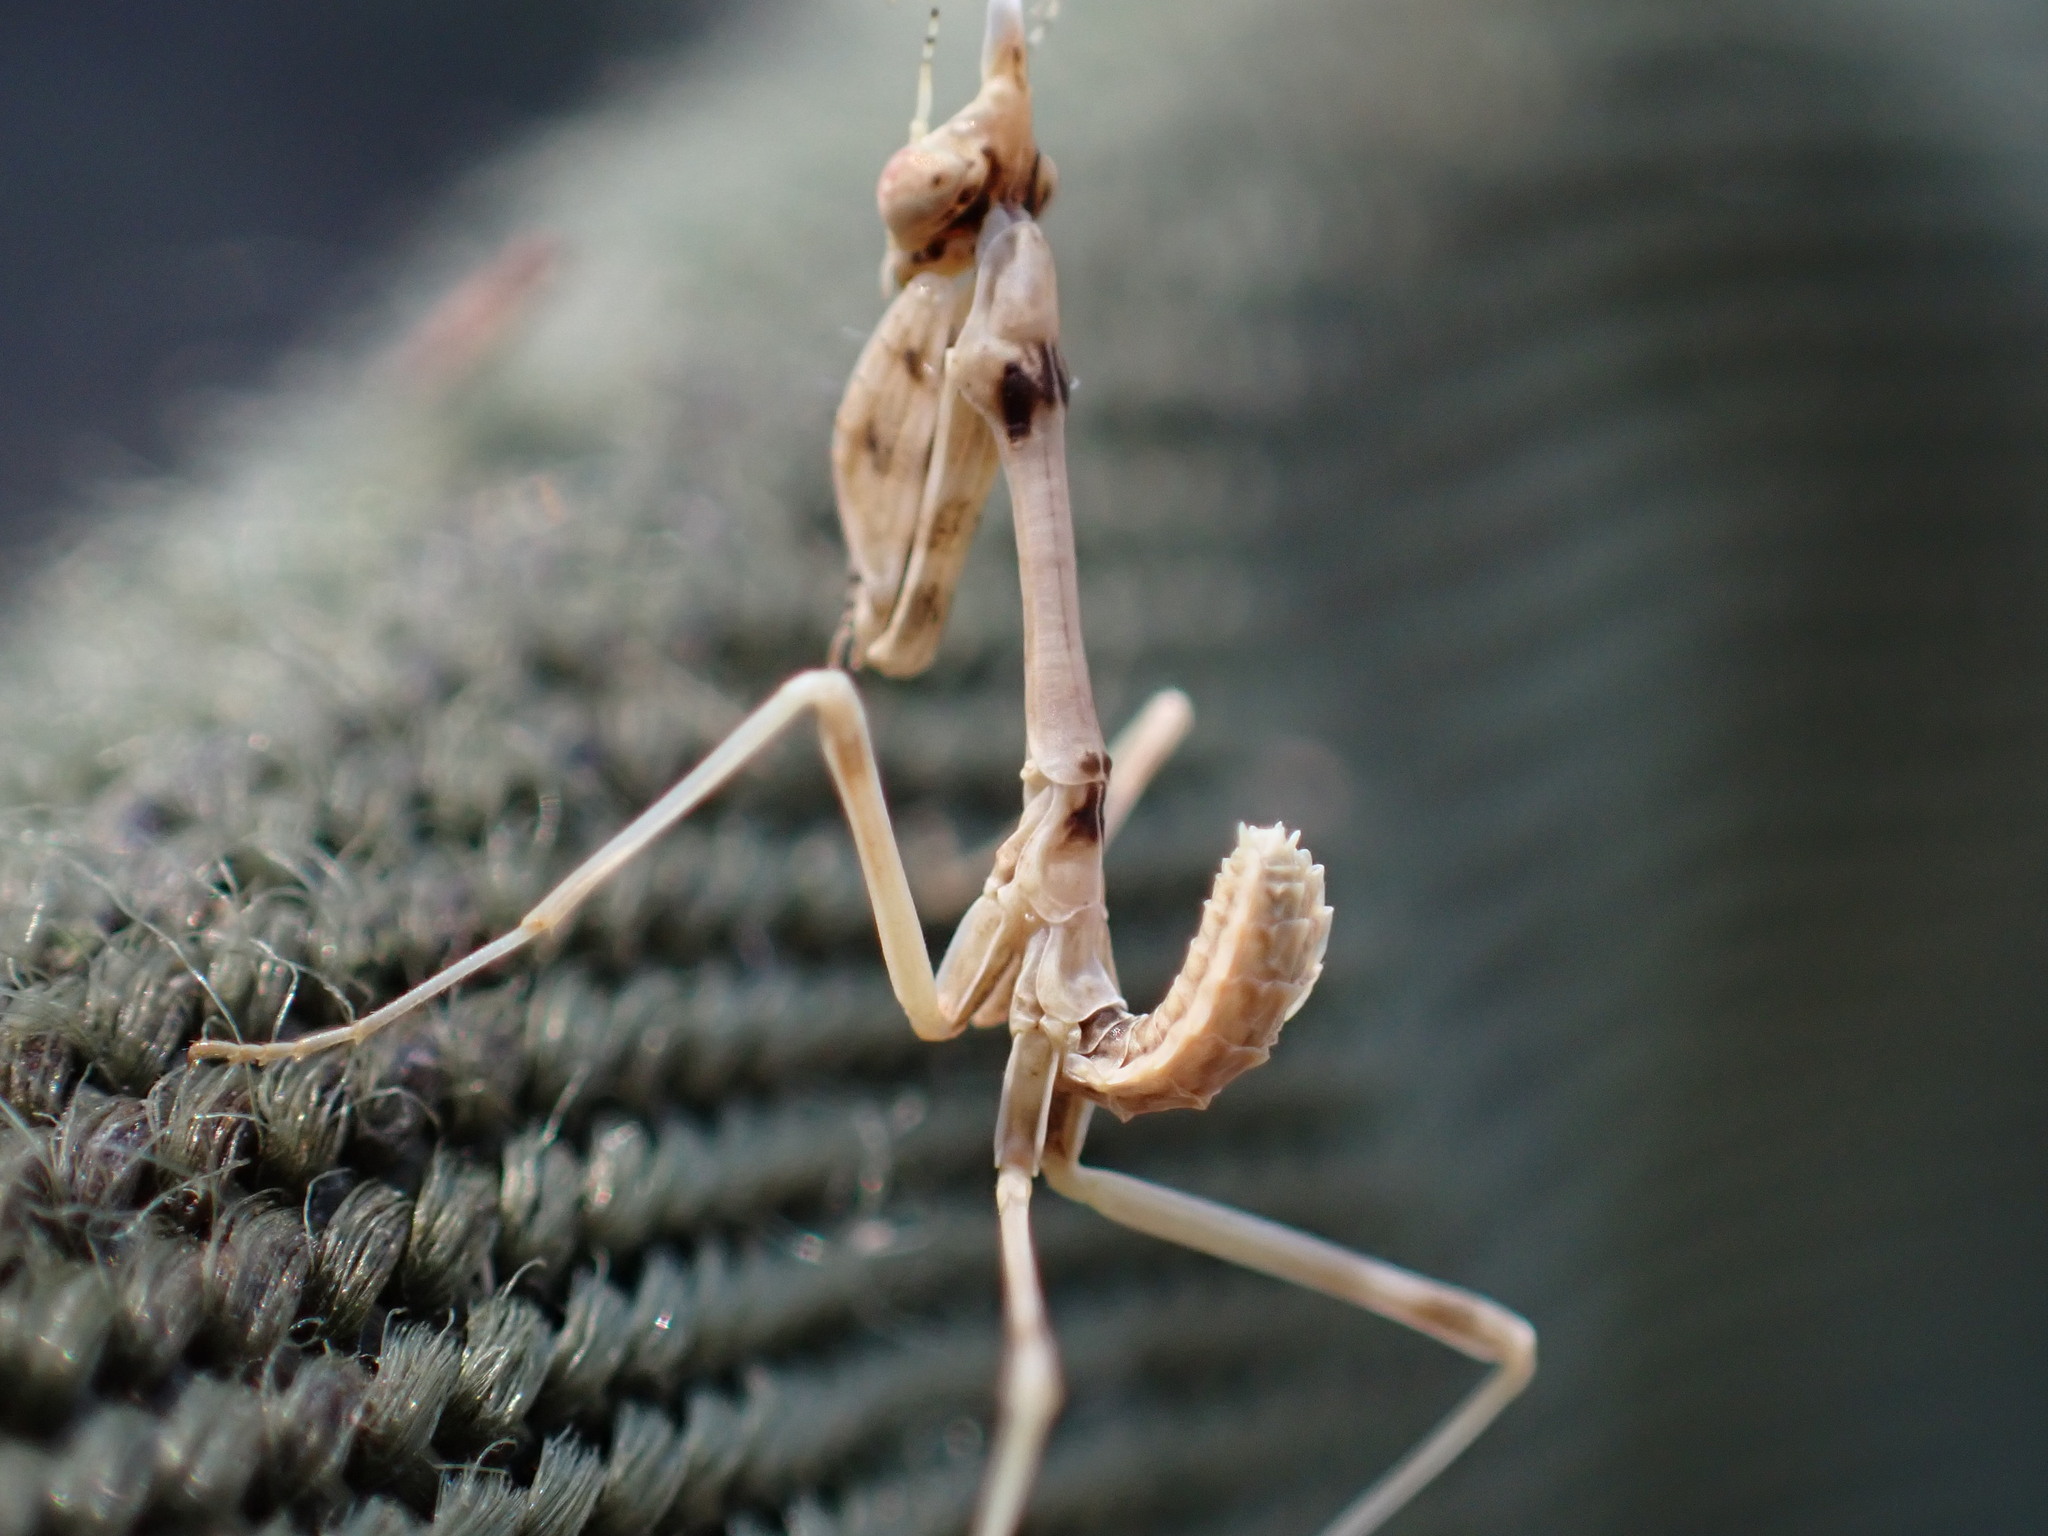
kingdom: Animalia
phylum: Arthropoda
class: Insecta
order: Mantodea
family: Empusidae
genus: Empusa
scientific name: Empusa pennata
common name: Conehead mantis
